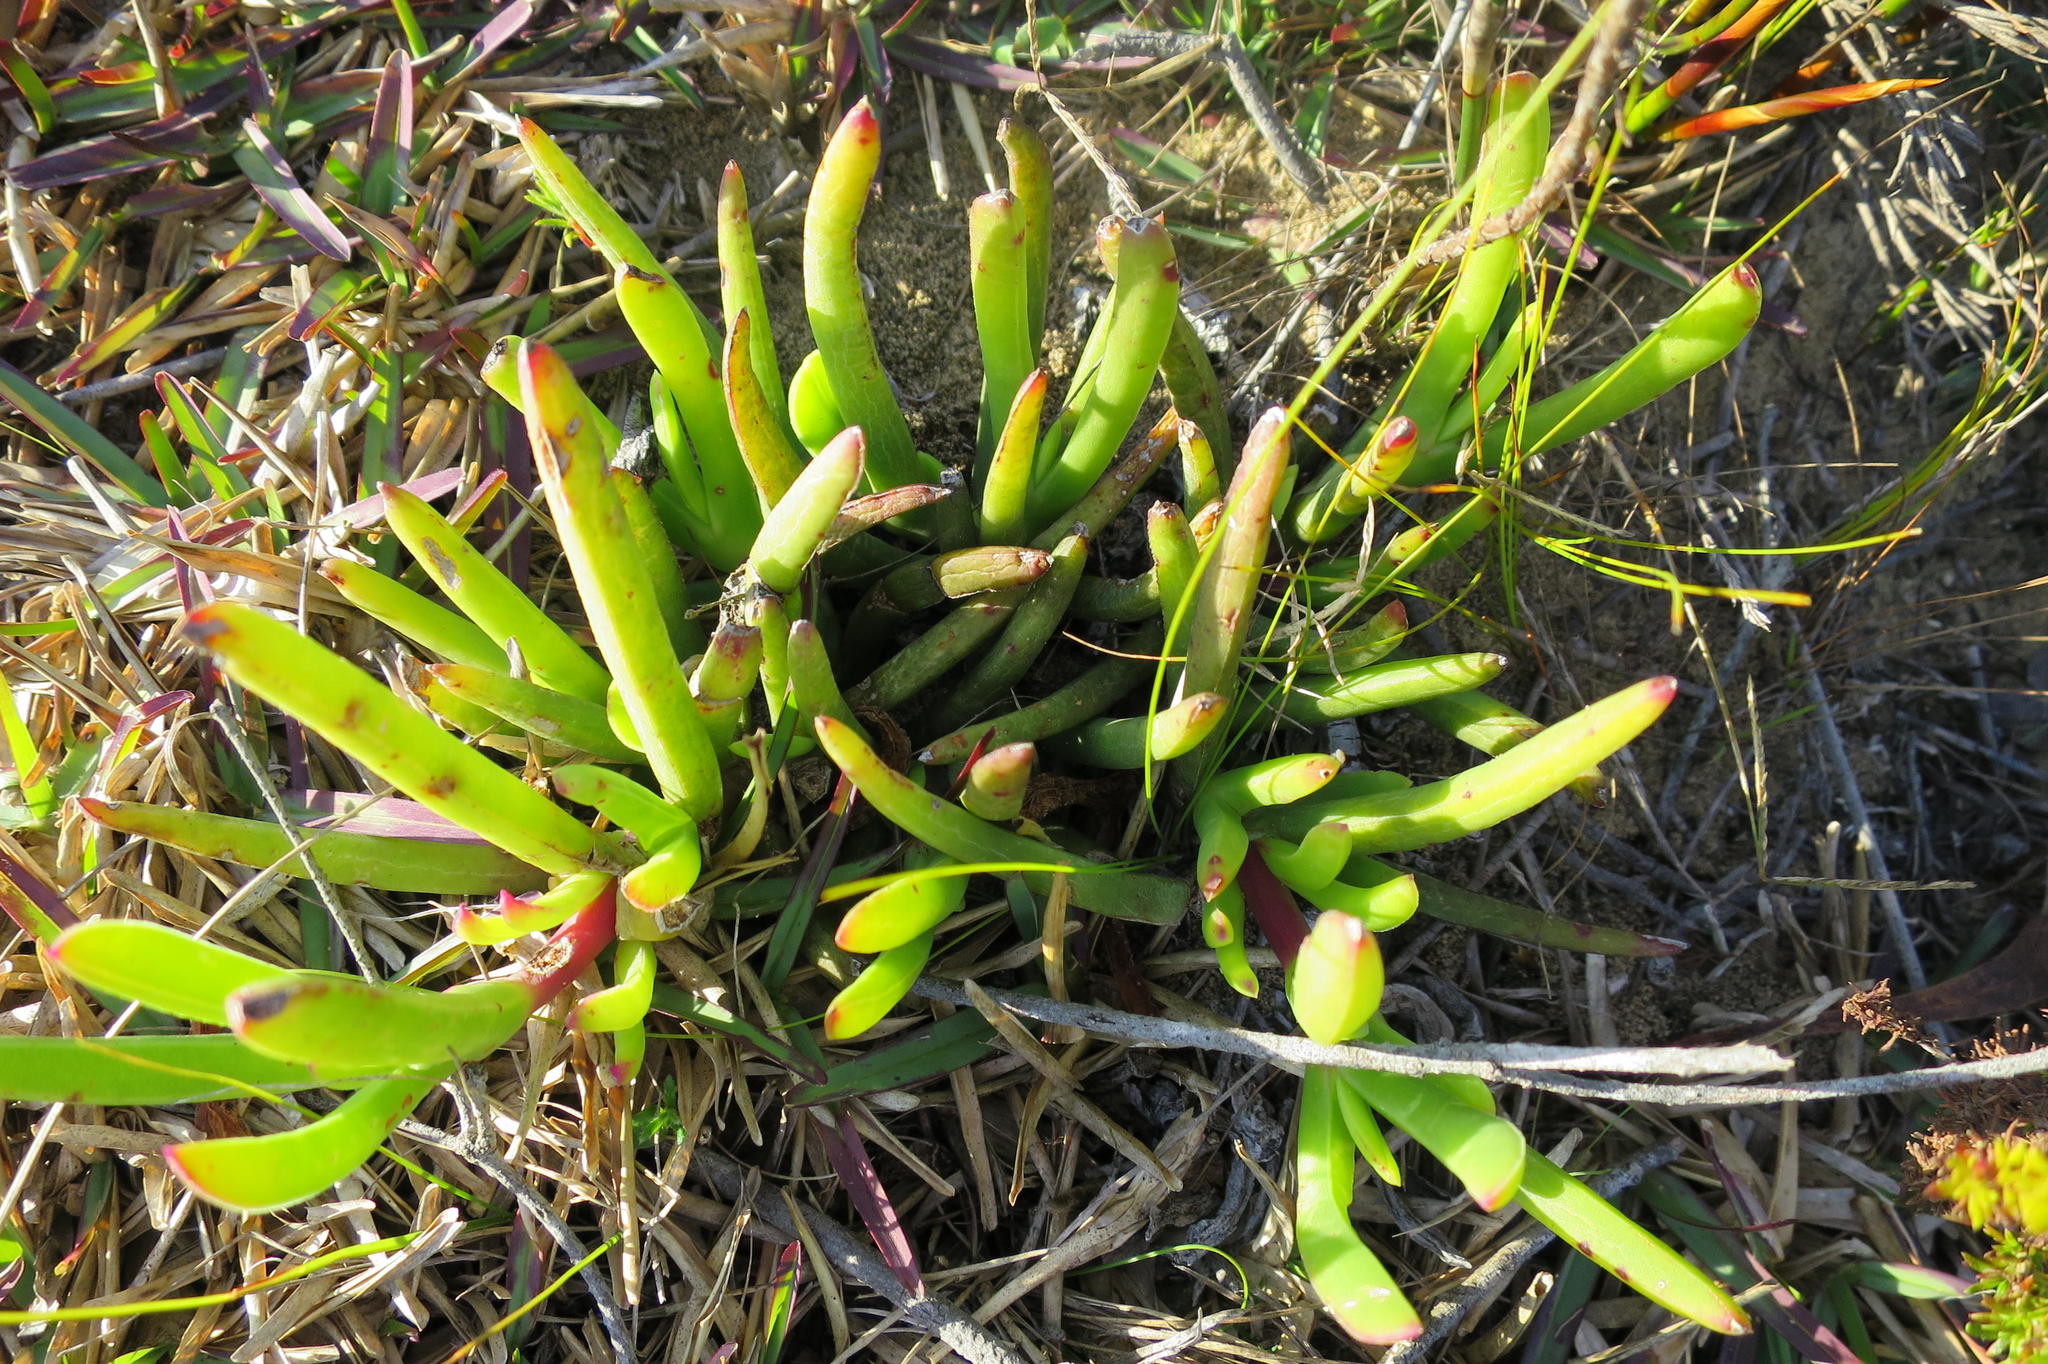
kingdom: Plantae
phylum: Tracheophyta
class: Magnoliopsida
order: Caryophyllales
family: Aizoaceae
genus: Carpobrotus
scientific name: Carpobrotus muirii
